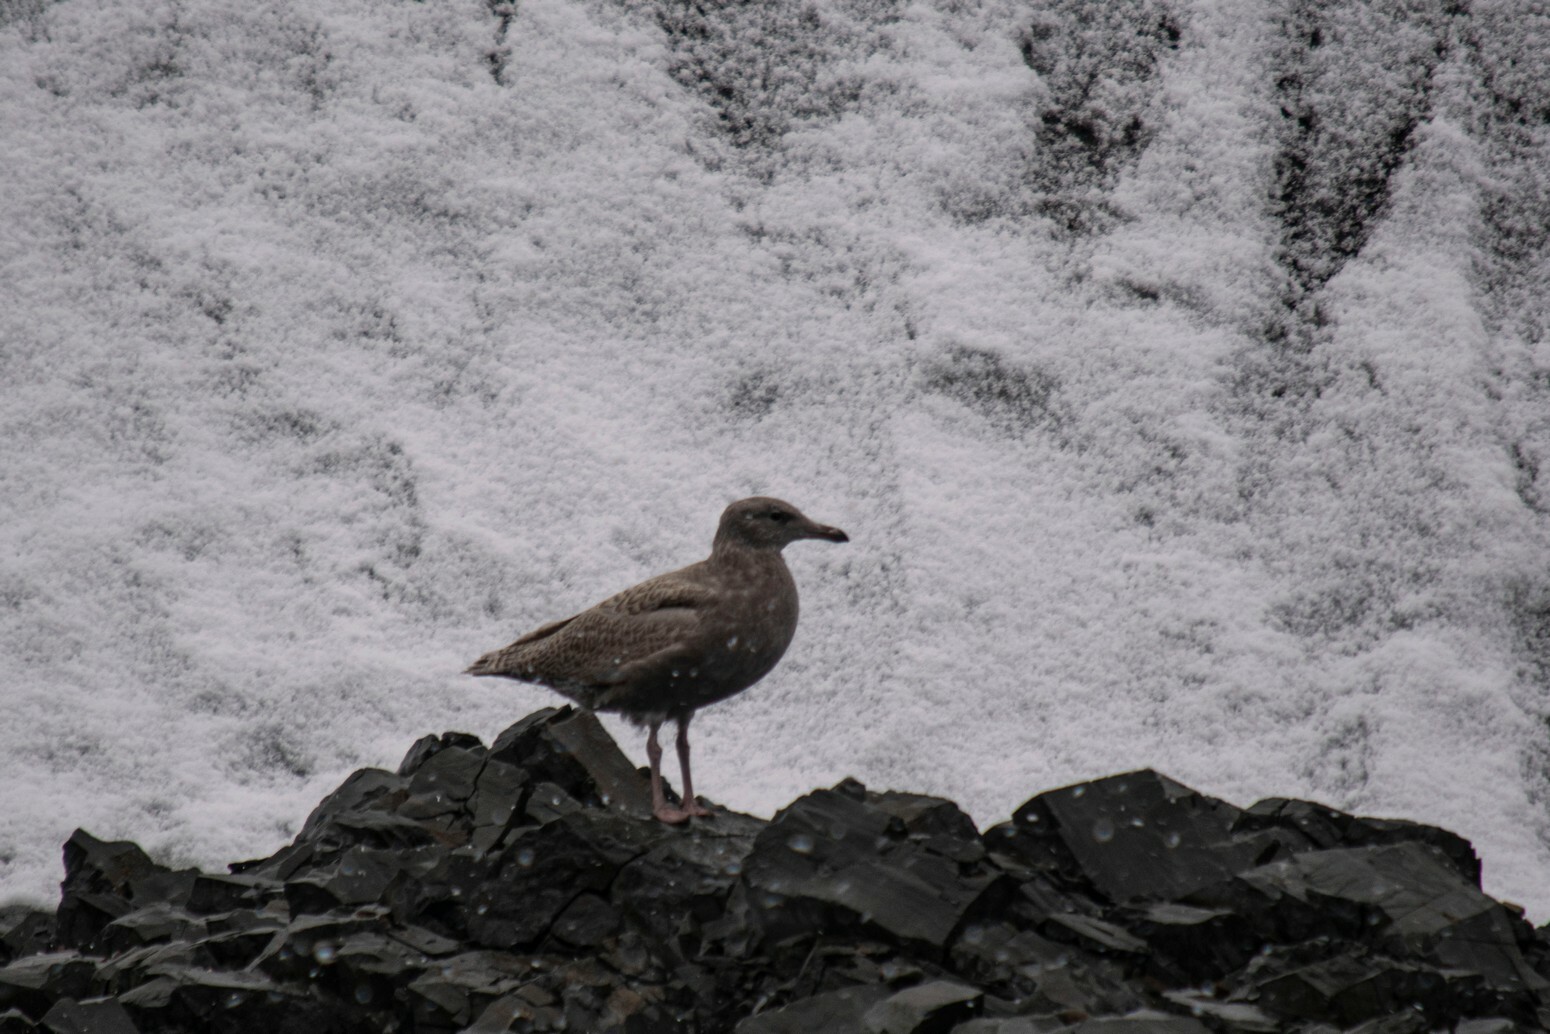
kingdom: Animalia
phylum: Chordata
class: Aves
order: Charadriiformes
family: Laridae
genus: Larus
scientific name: Larus hyperboreus
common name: Glaucous gull
